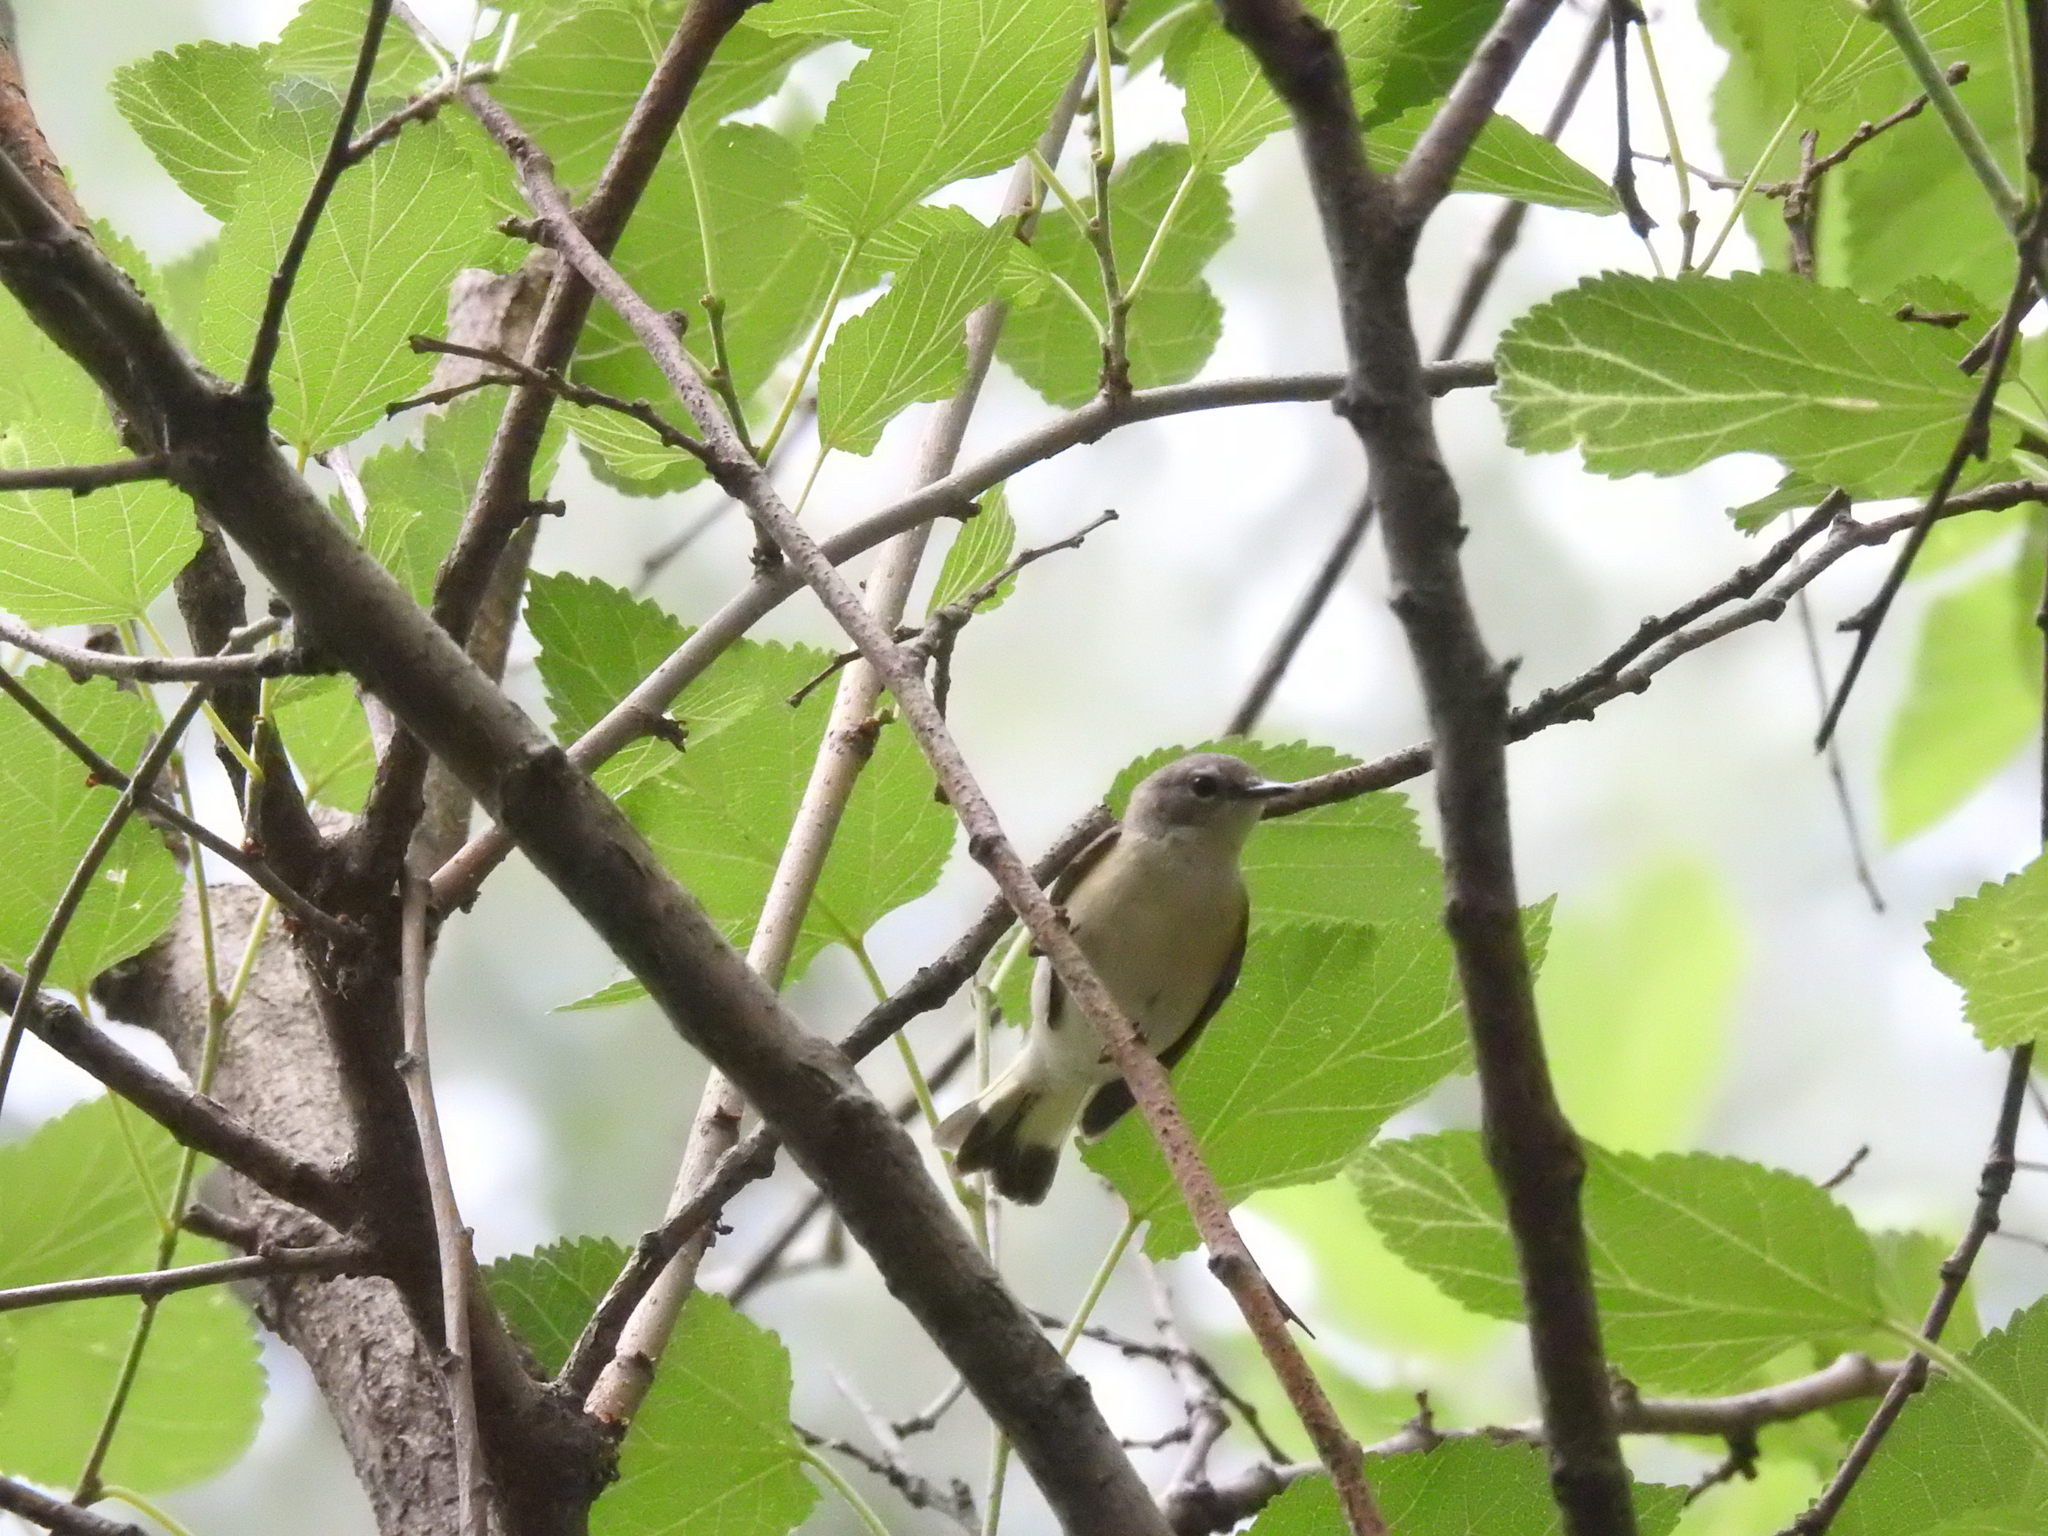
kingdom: Animalia
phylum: Chordata
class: Aves
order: Passeriformes
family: Parulidae
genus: Setophaga
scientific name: Setophaga ruticilla
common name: American redstart
